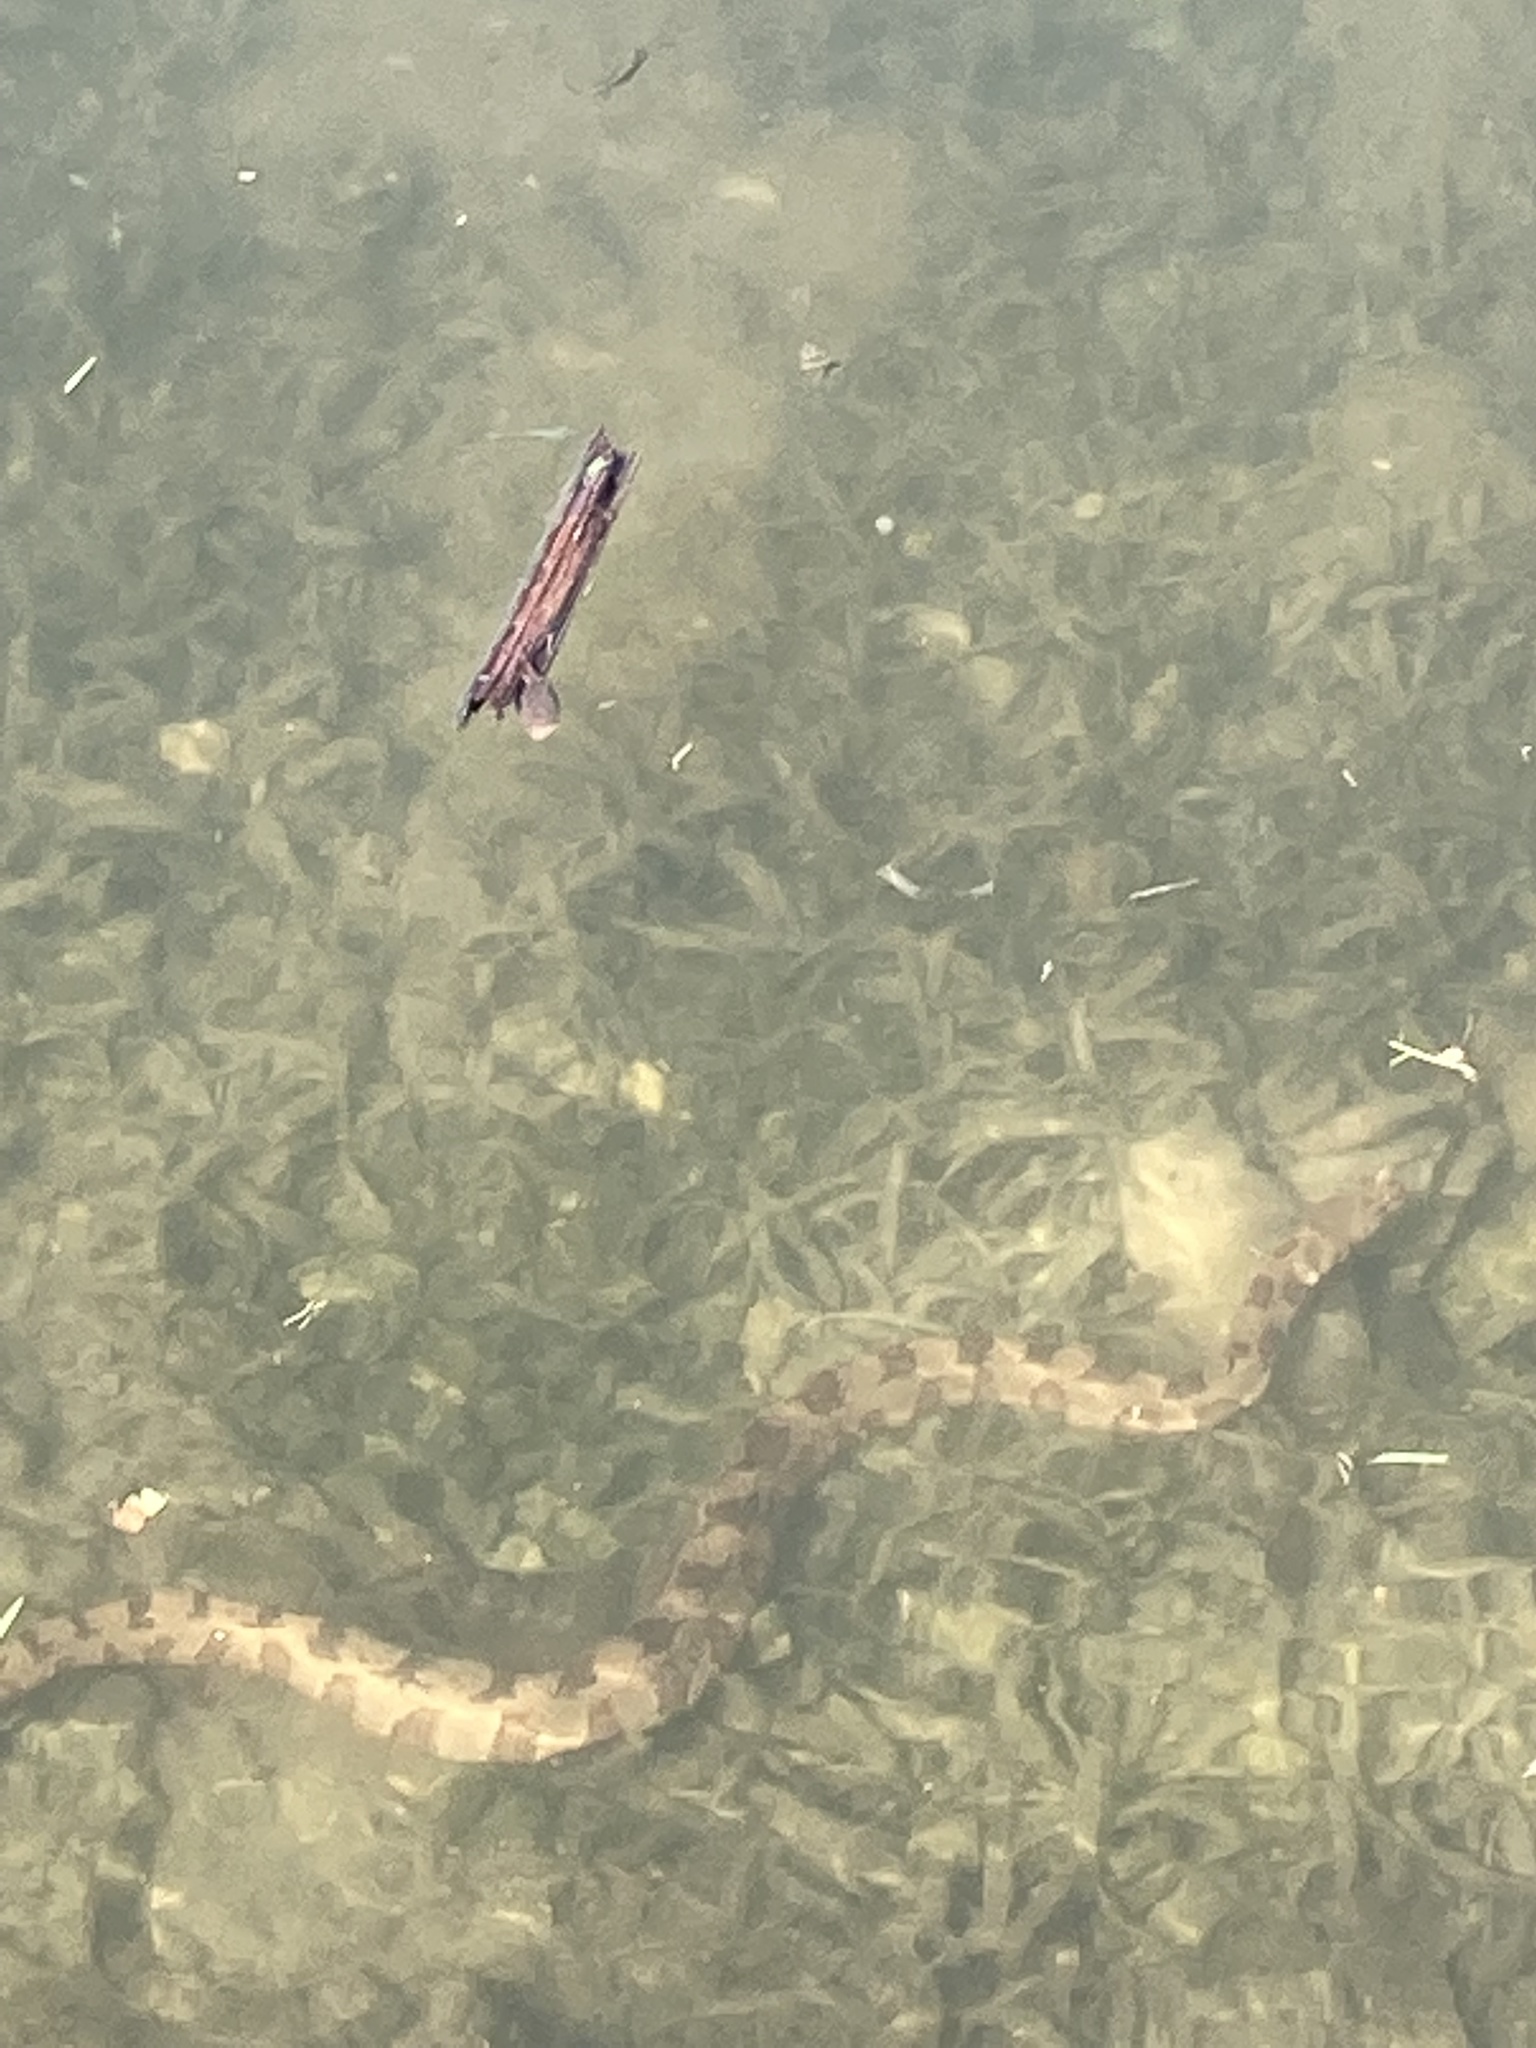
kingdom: Animalia
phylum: Chordata
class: Squamata
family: Colubridae
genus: Nerodia
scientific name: Nerodia taxispilota
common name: Brown water snake
